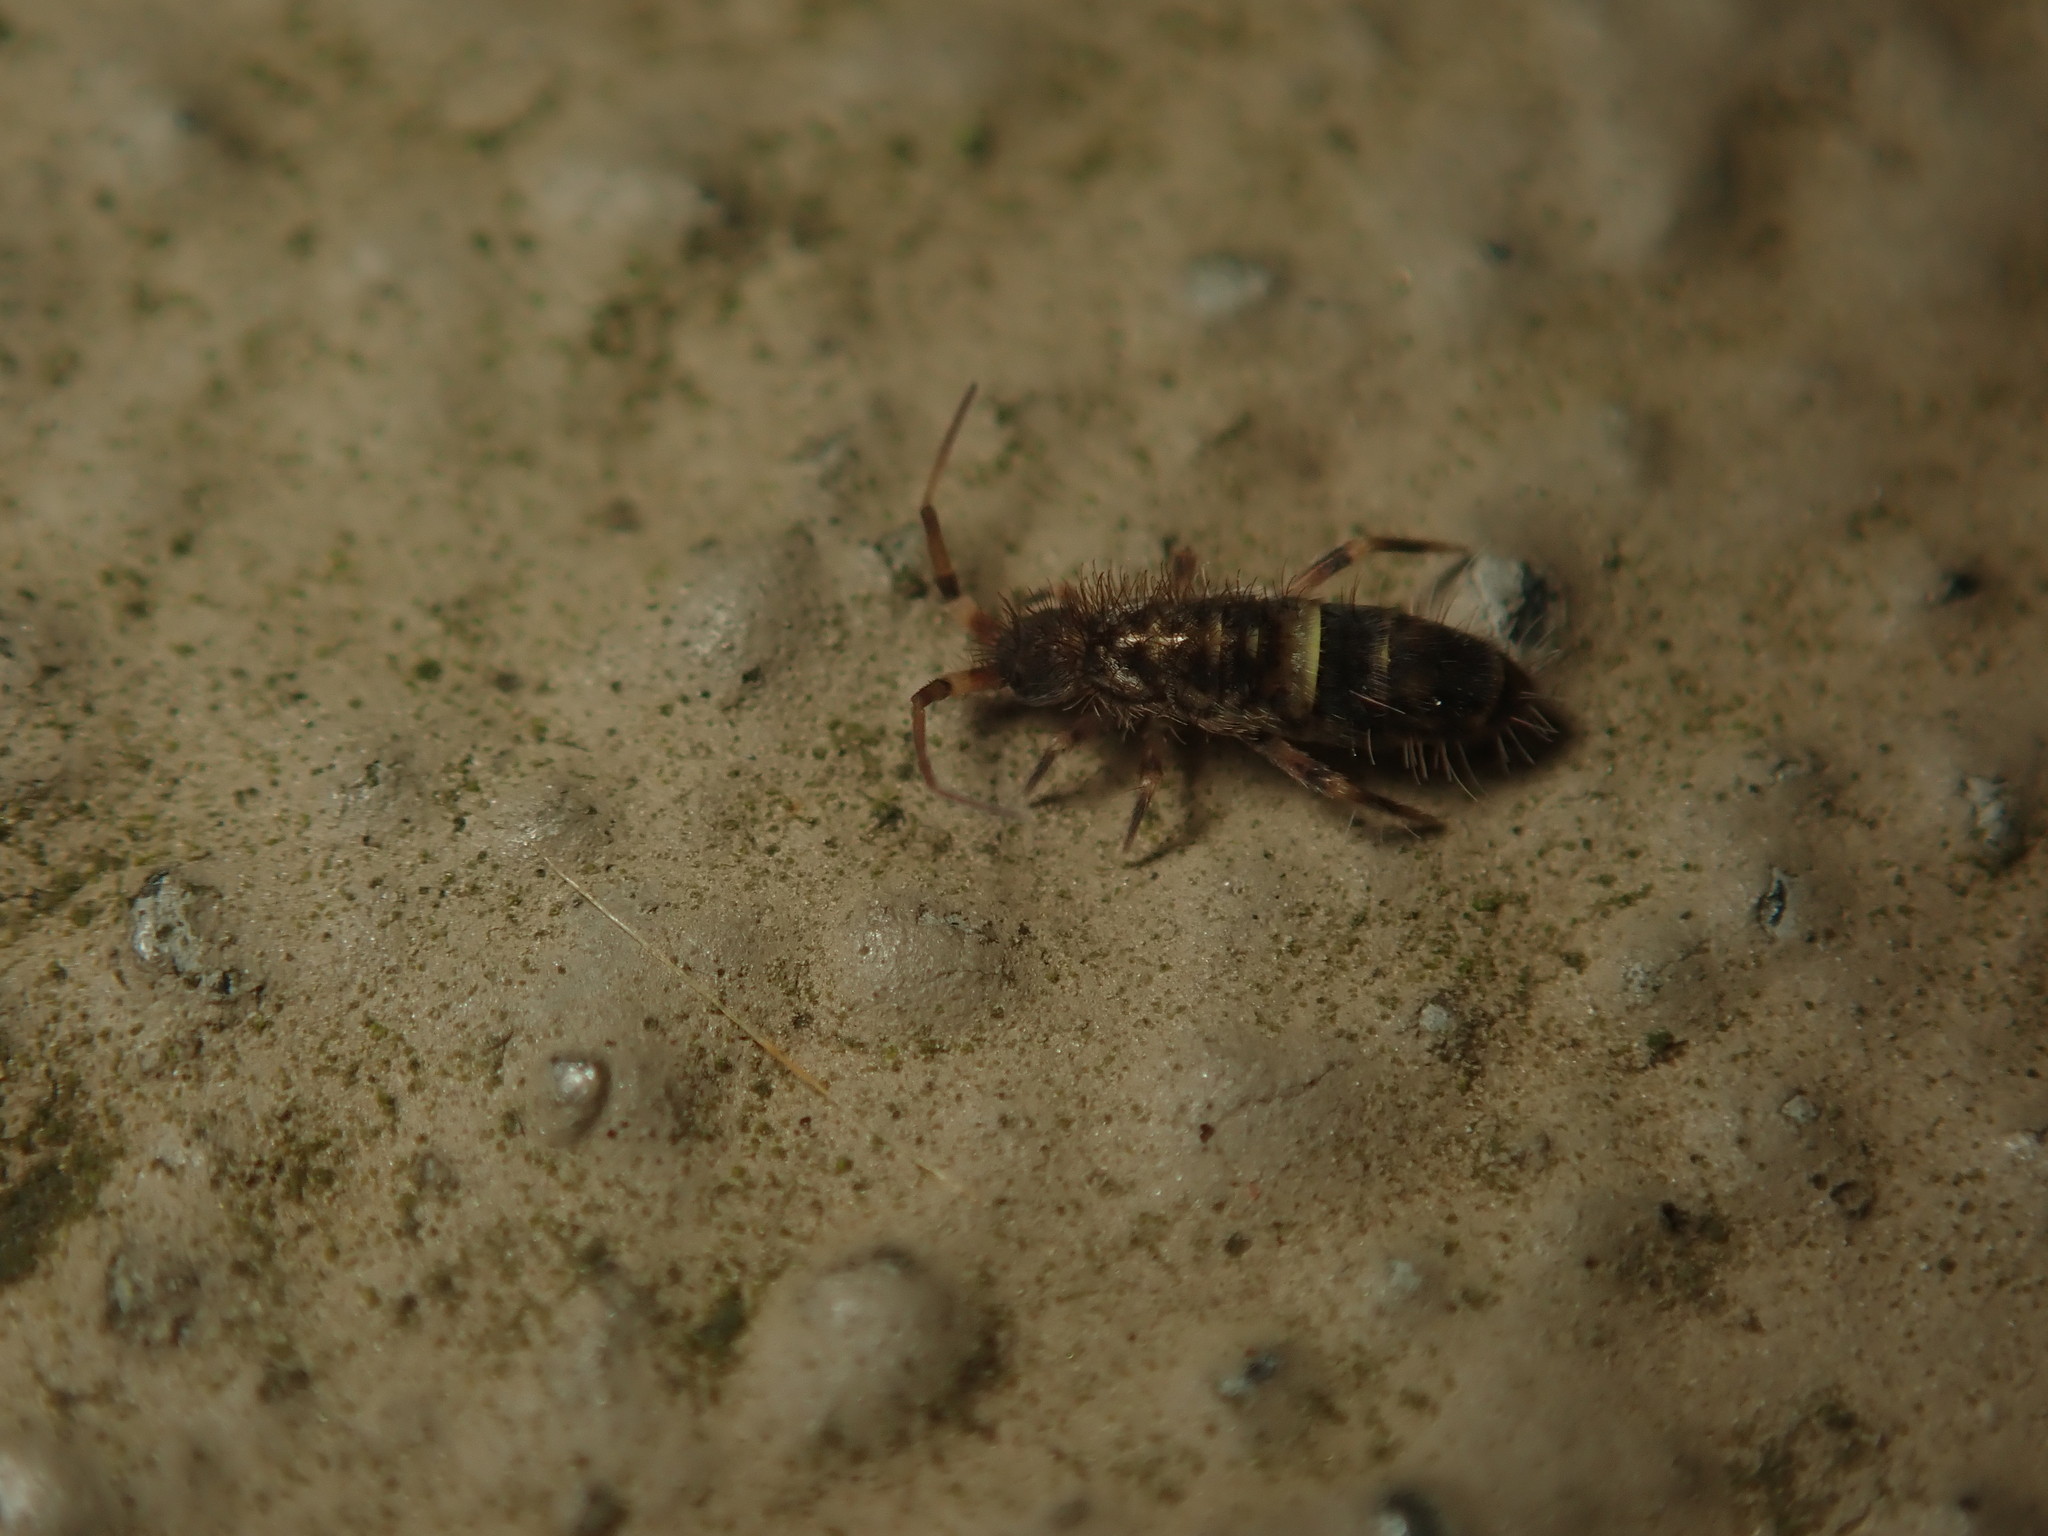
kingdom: Animalia
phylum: Arthropoda
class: Collembola
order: Entomobryomorpha
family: Orchesellidae
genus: Orchesella
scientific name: Orchesella cincta
